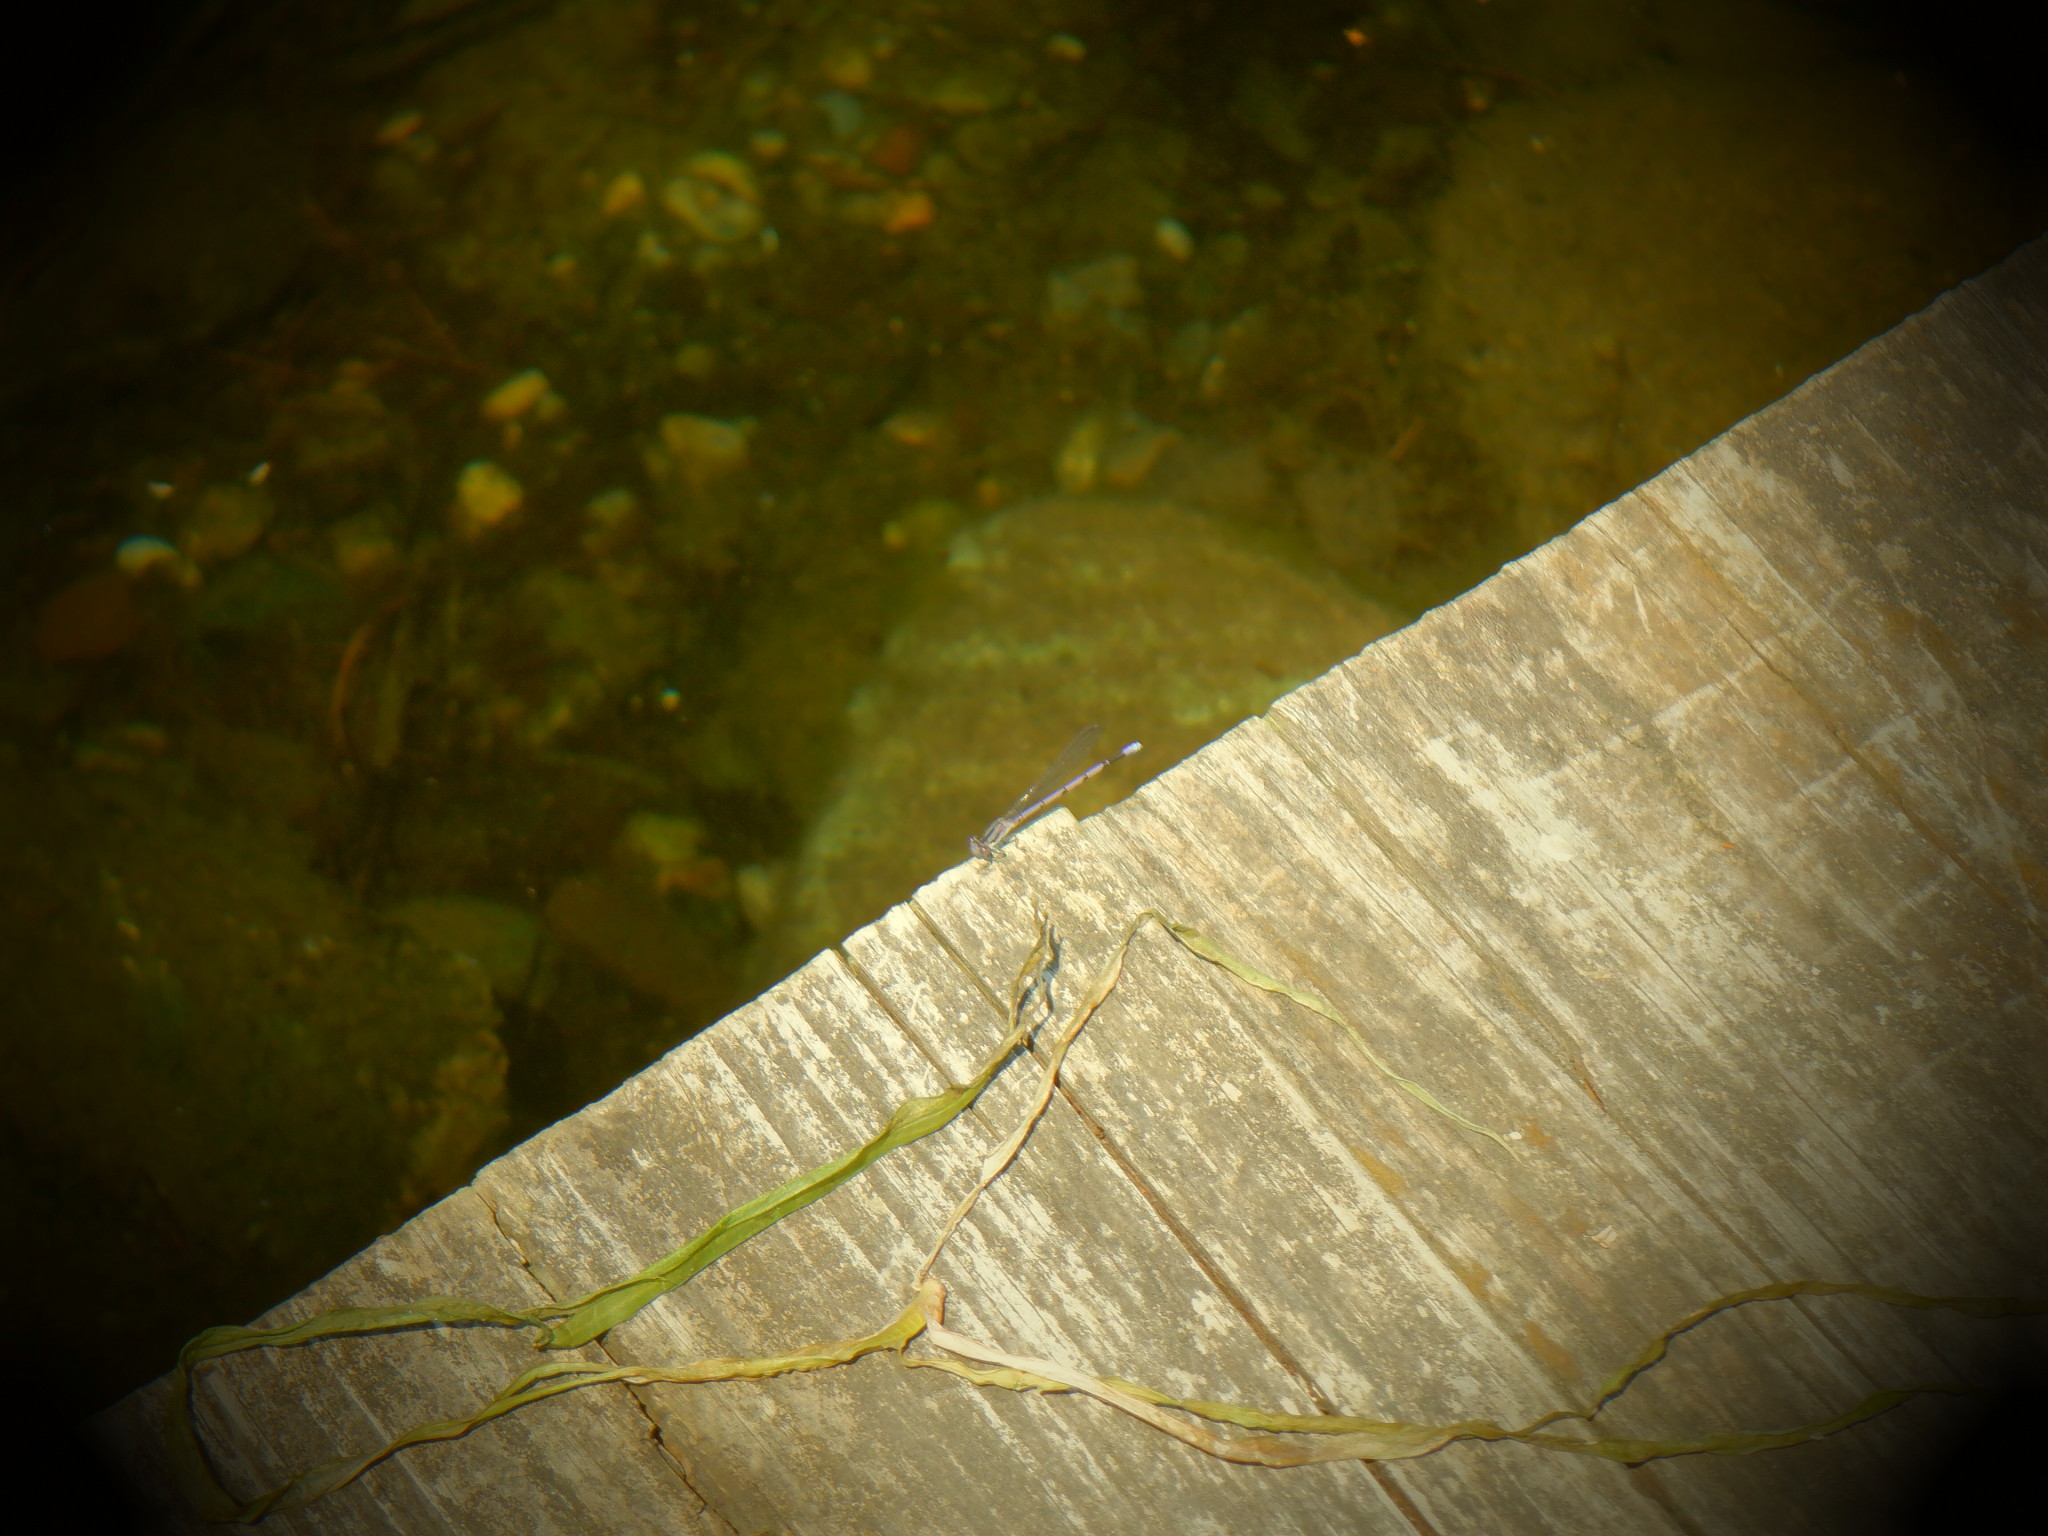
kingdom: Animalia
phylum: Arthropoda
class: Insecta
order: Odonata
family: Coenagrionidae
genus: Argia
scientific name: Argia fumipennis
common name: Variable dancer
